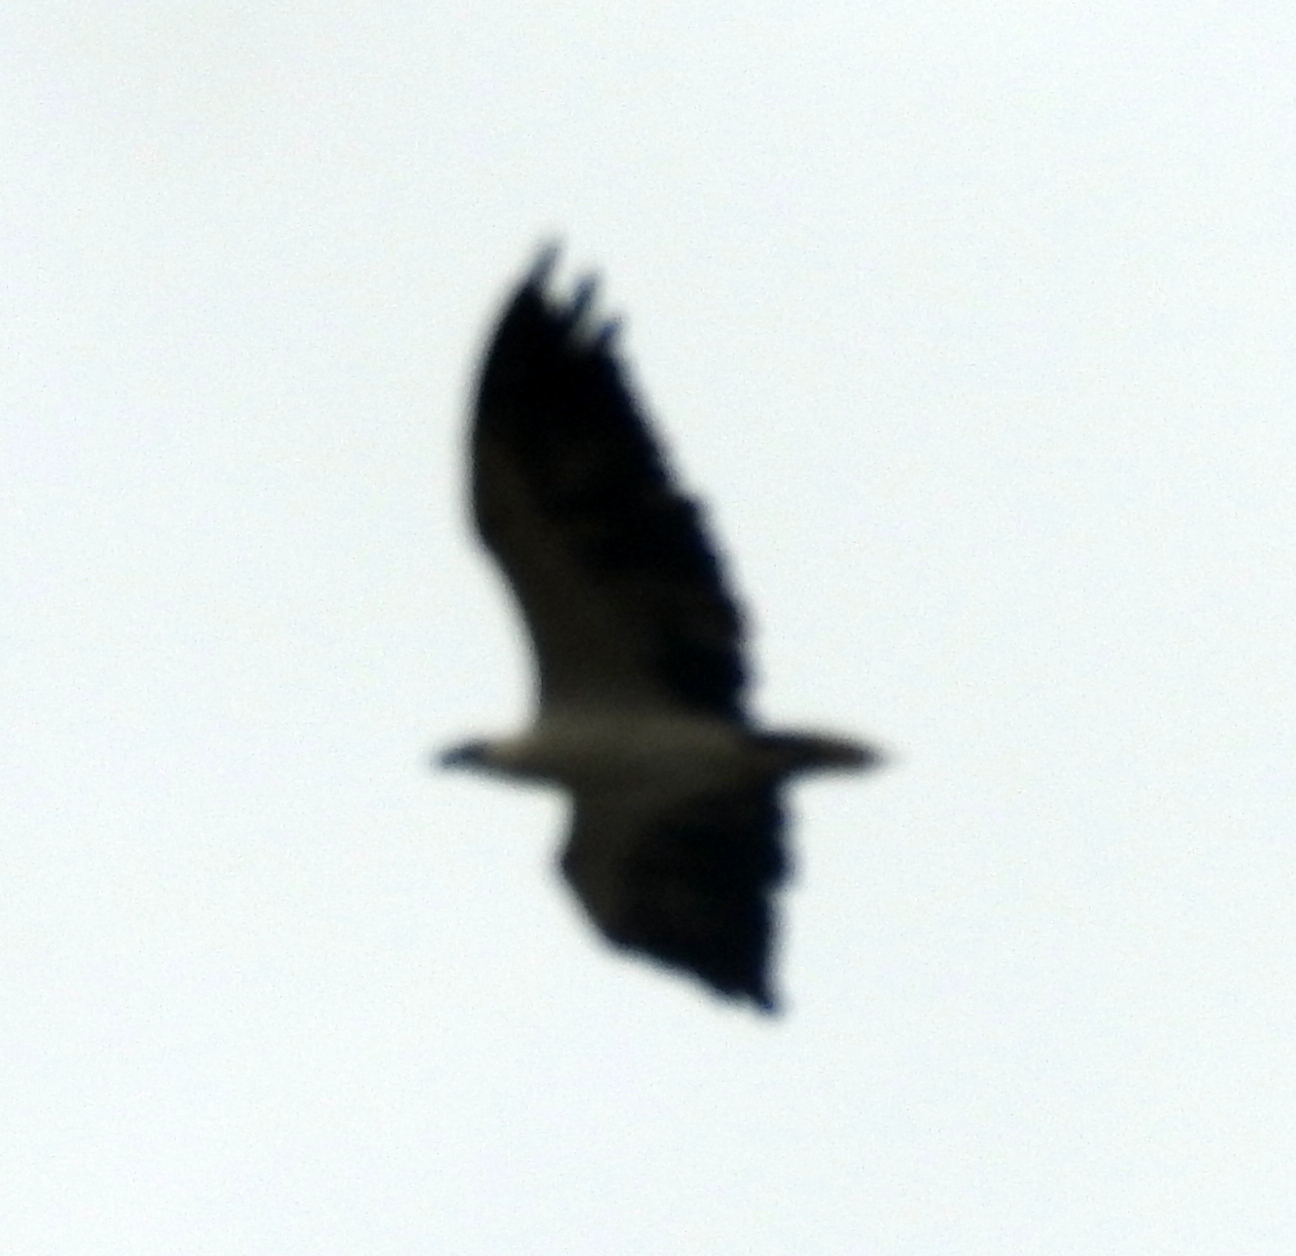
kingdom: Animalia
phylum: Chordata
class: Aves
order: Accipitriformes
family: Accipitridae
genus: Haliaeetus
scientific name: Haliaeetus leucogaster
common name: White-bellied sea eagle
